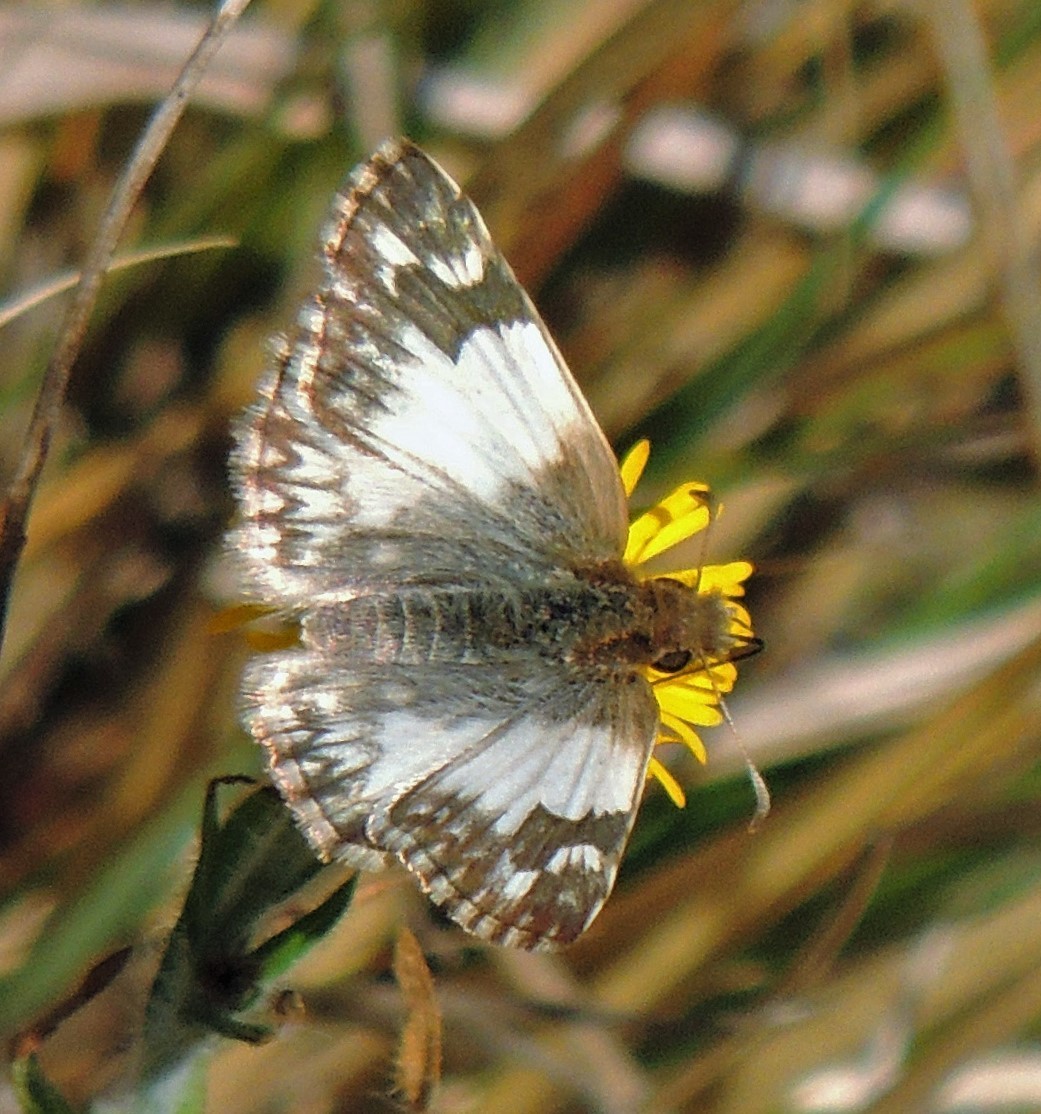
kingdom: Animalia
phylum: Arthropoda
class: Insecta
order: Lepidoptera
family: Hesperiidae
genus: Heliopetes
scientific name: Heliopetes omrina
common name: Stained white-skipper
